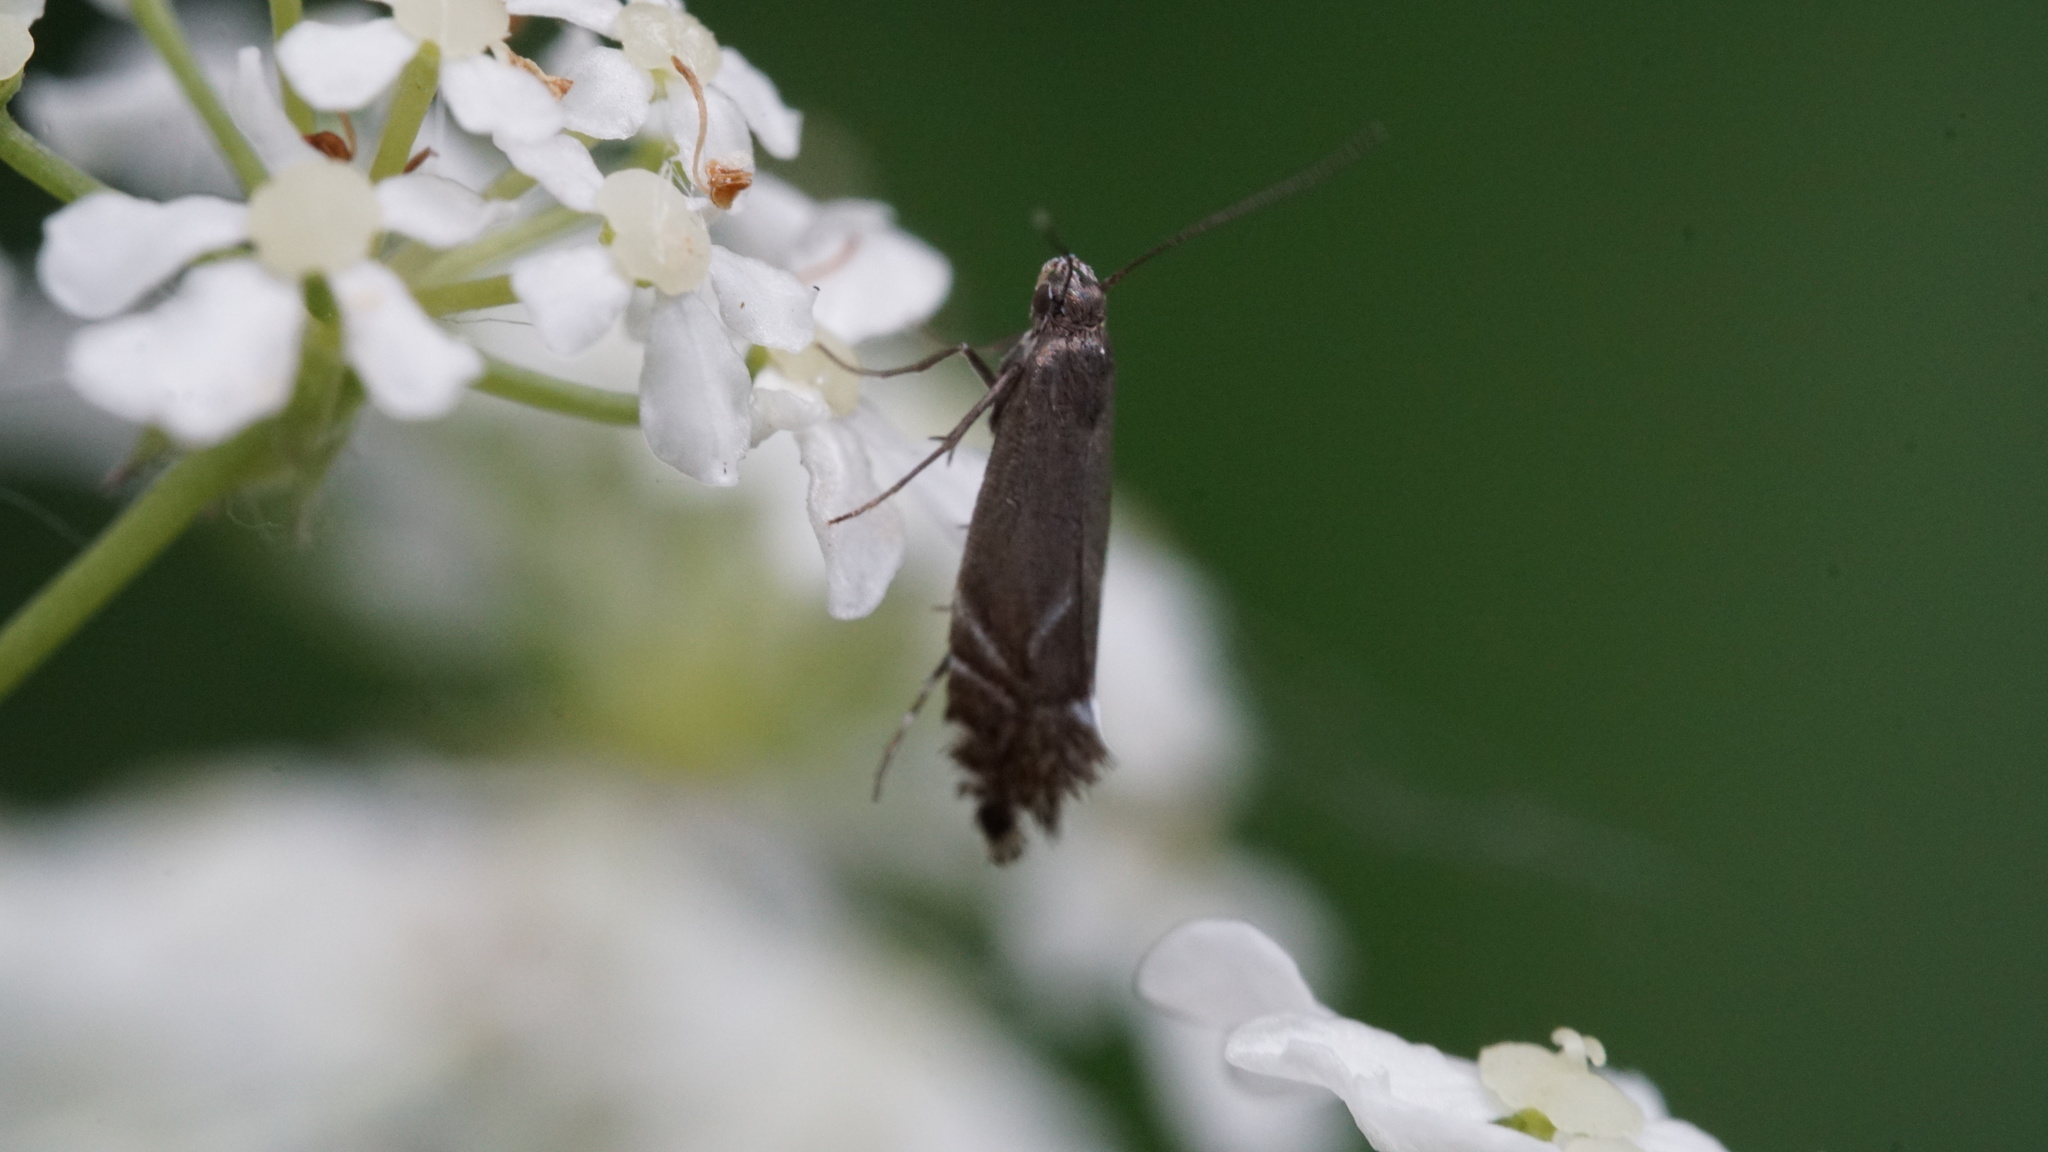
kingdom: Animalia
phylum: Arthropoda
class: Insecta
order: Lepidoptera
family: Glyphipterigidae
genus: Glyphipterix
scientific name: Glyphipterix simpliciella
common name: Cocksfoot moth
